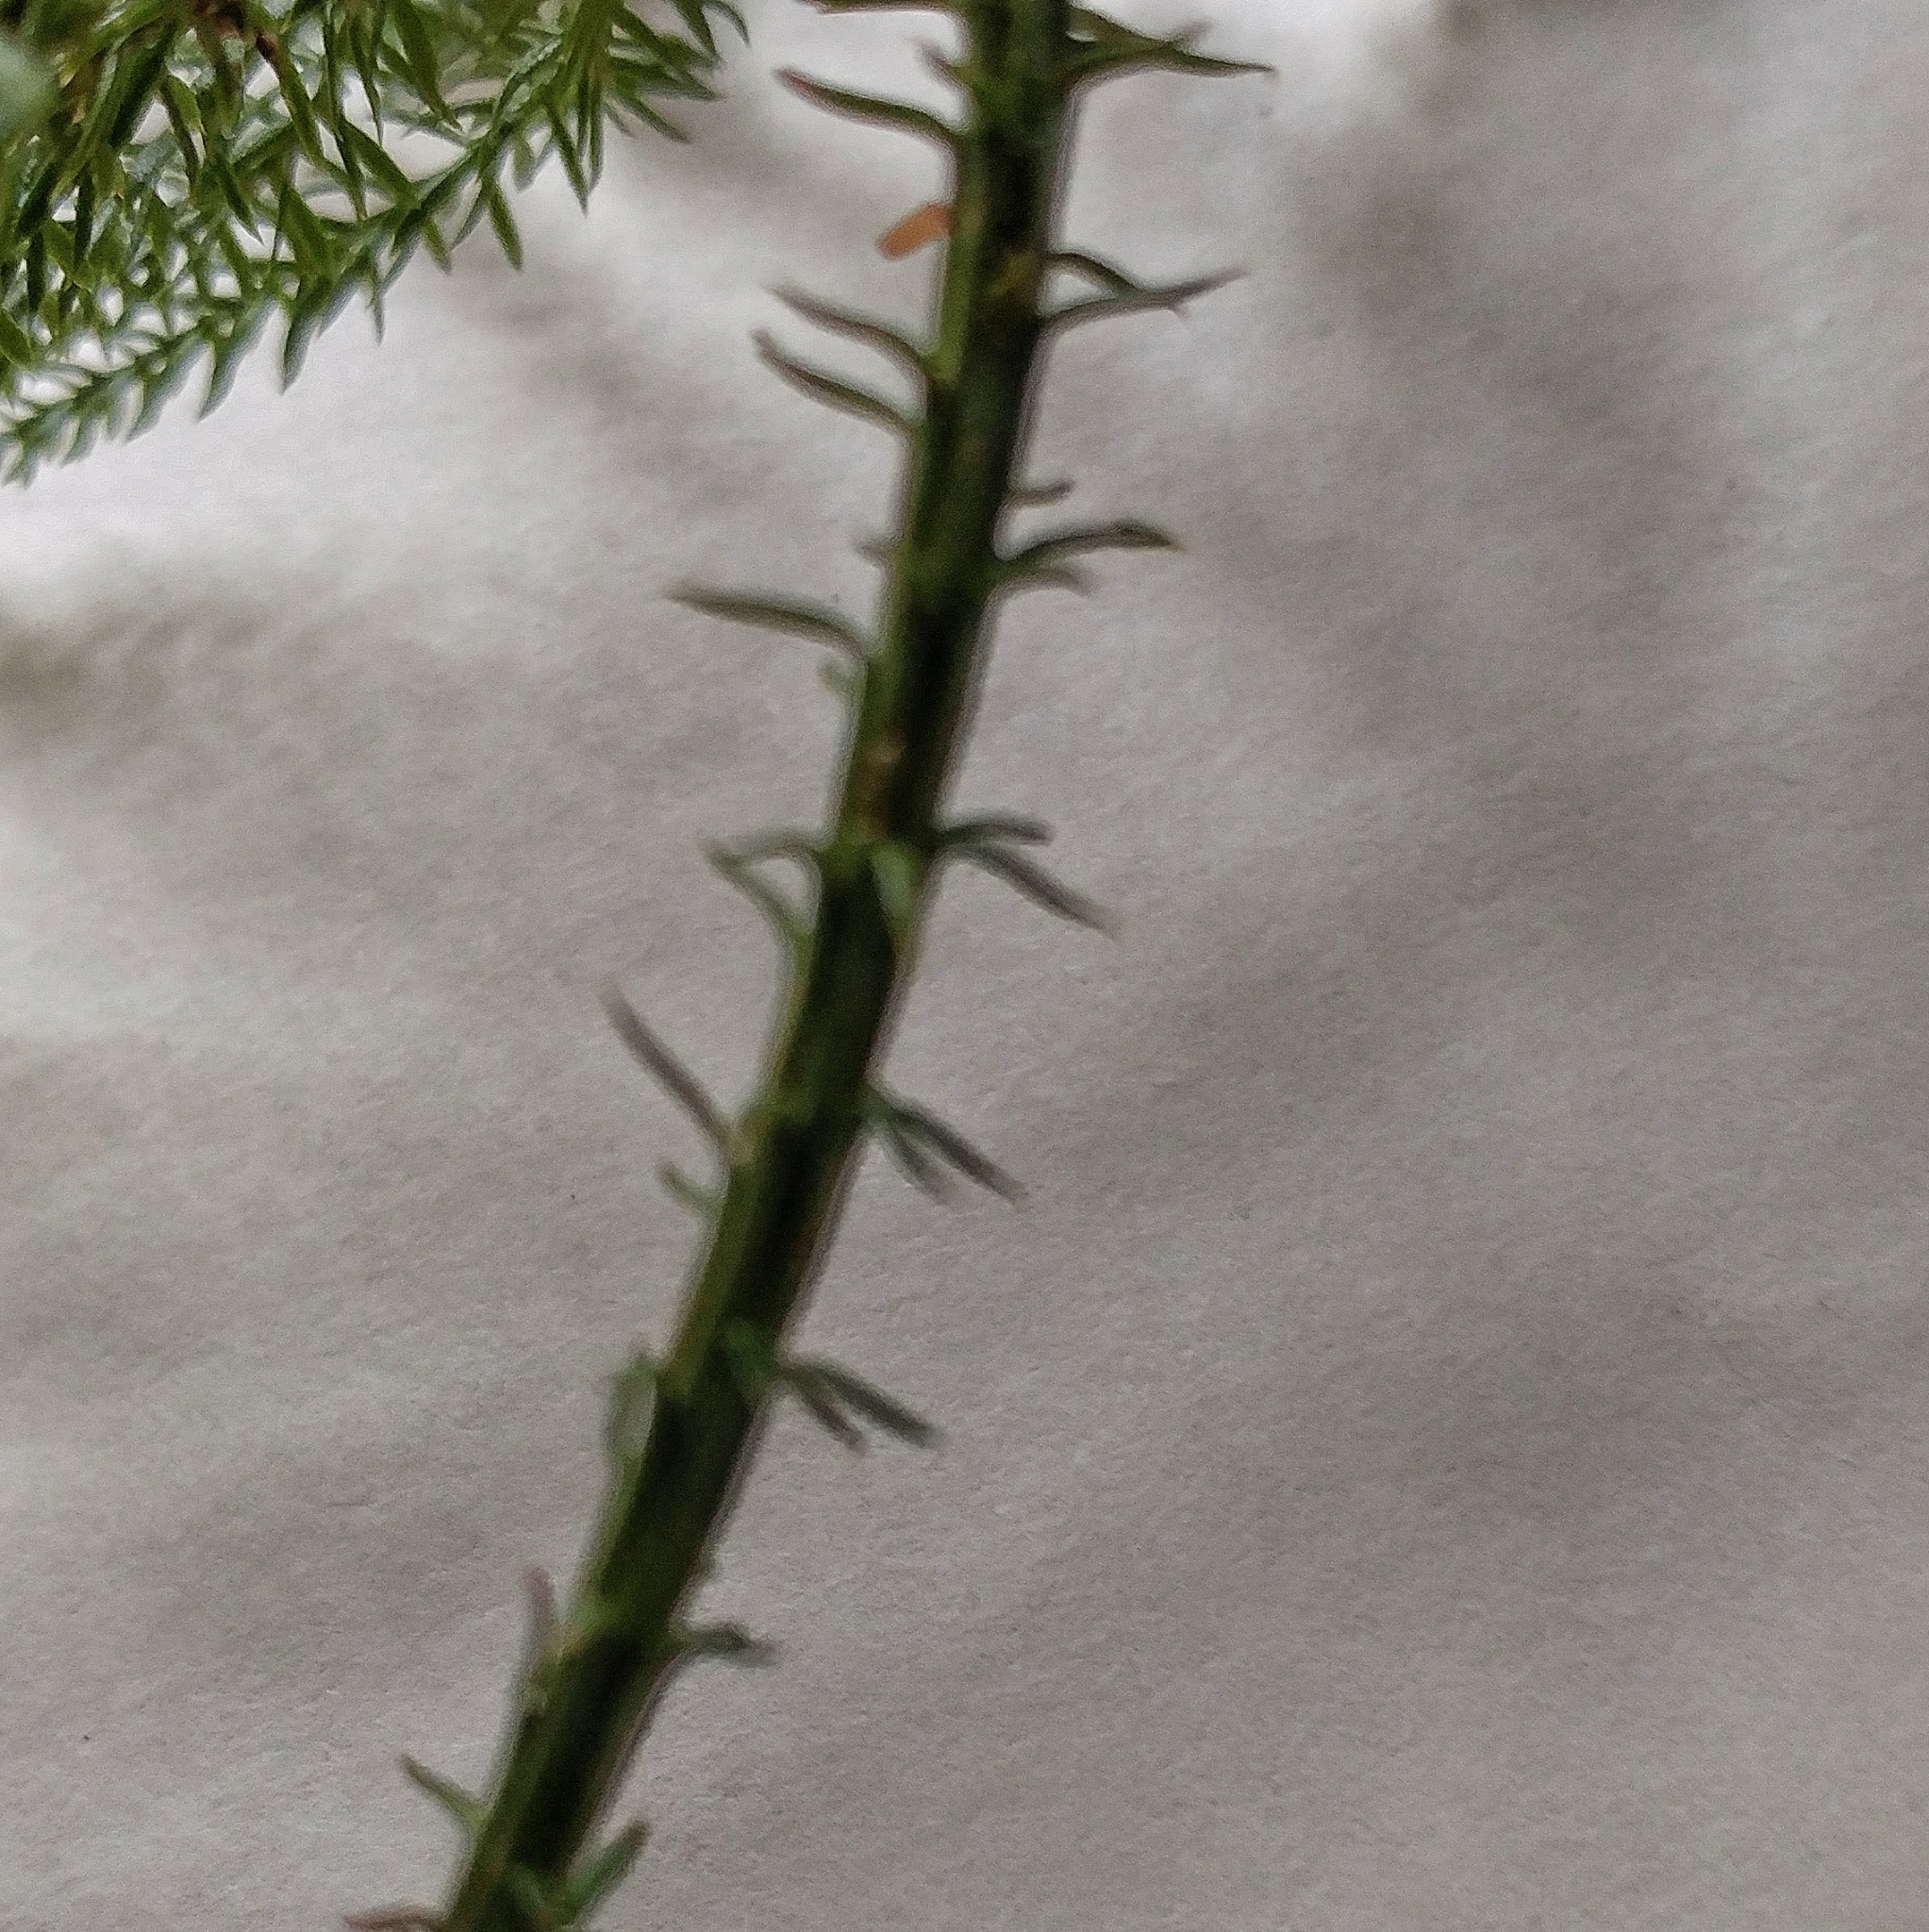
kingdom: Plantae
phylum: Tracheophyta
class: Lycopodiopsida
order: Lycopodiales
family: Lycopodiaceae
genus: Dendrolycopodium
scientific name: Dendrolycopodium dendroideum
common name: Northern tree-clubmoss
